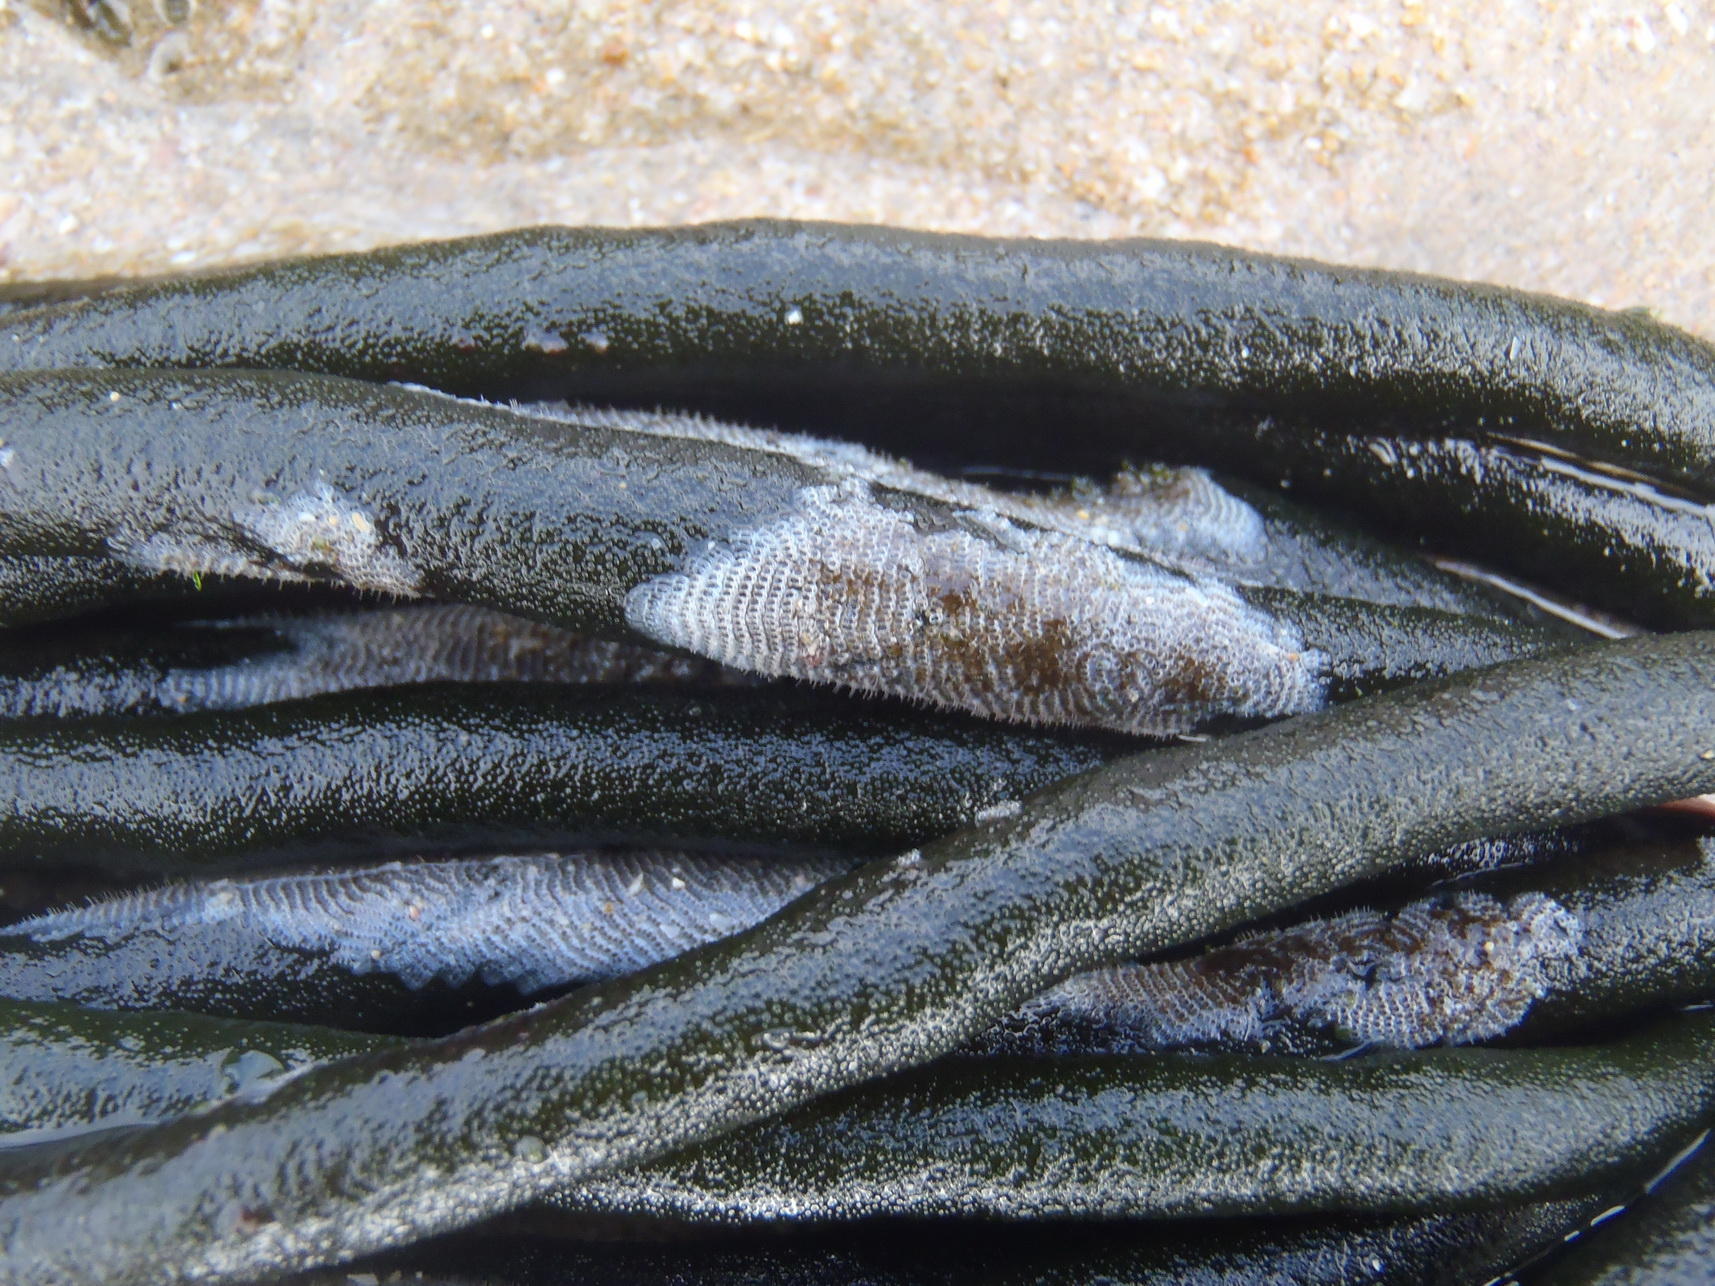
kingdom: Plantae
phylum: Chlorophyta
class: Ulvophyceae
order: Bryopsidales
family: Codiaceae
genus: Codium
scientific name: Codium fragile
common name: Dead man's fingers
